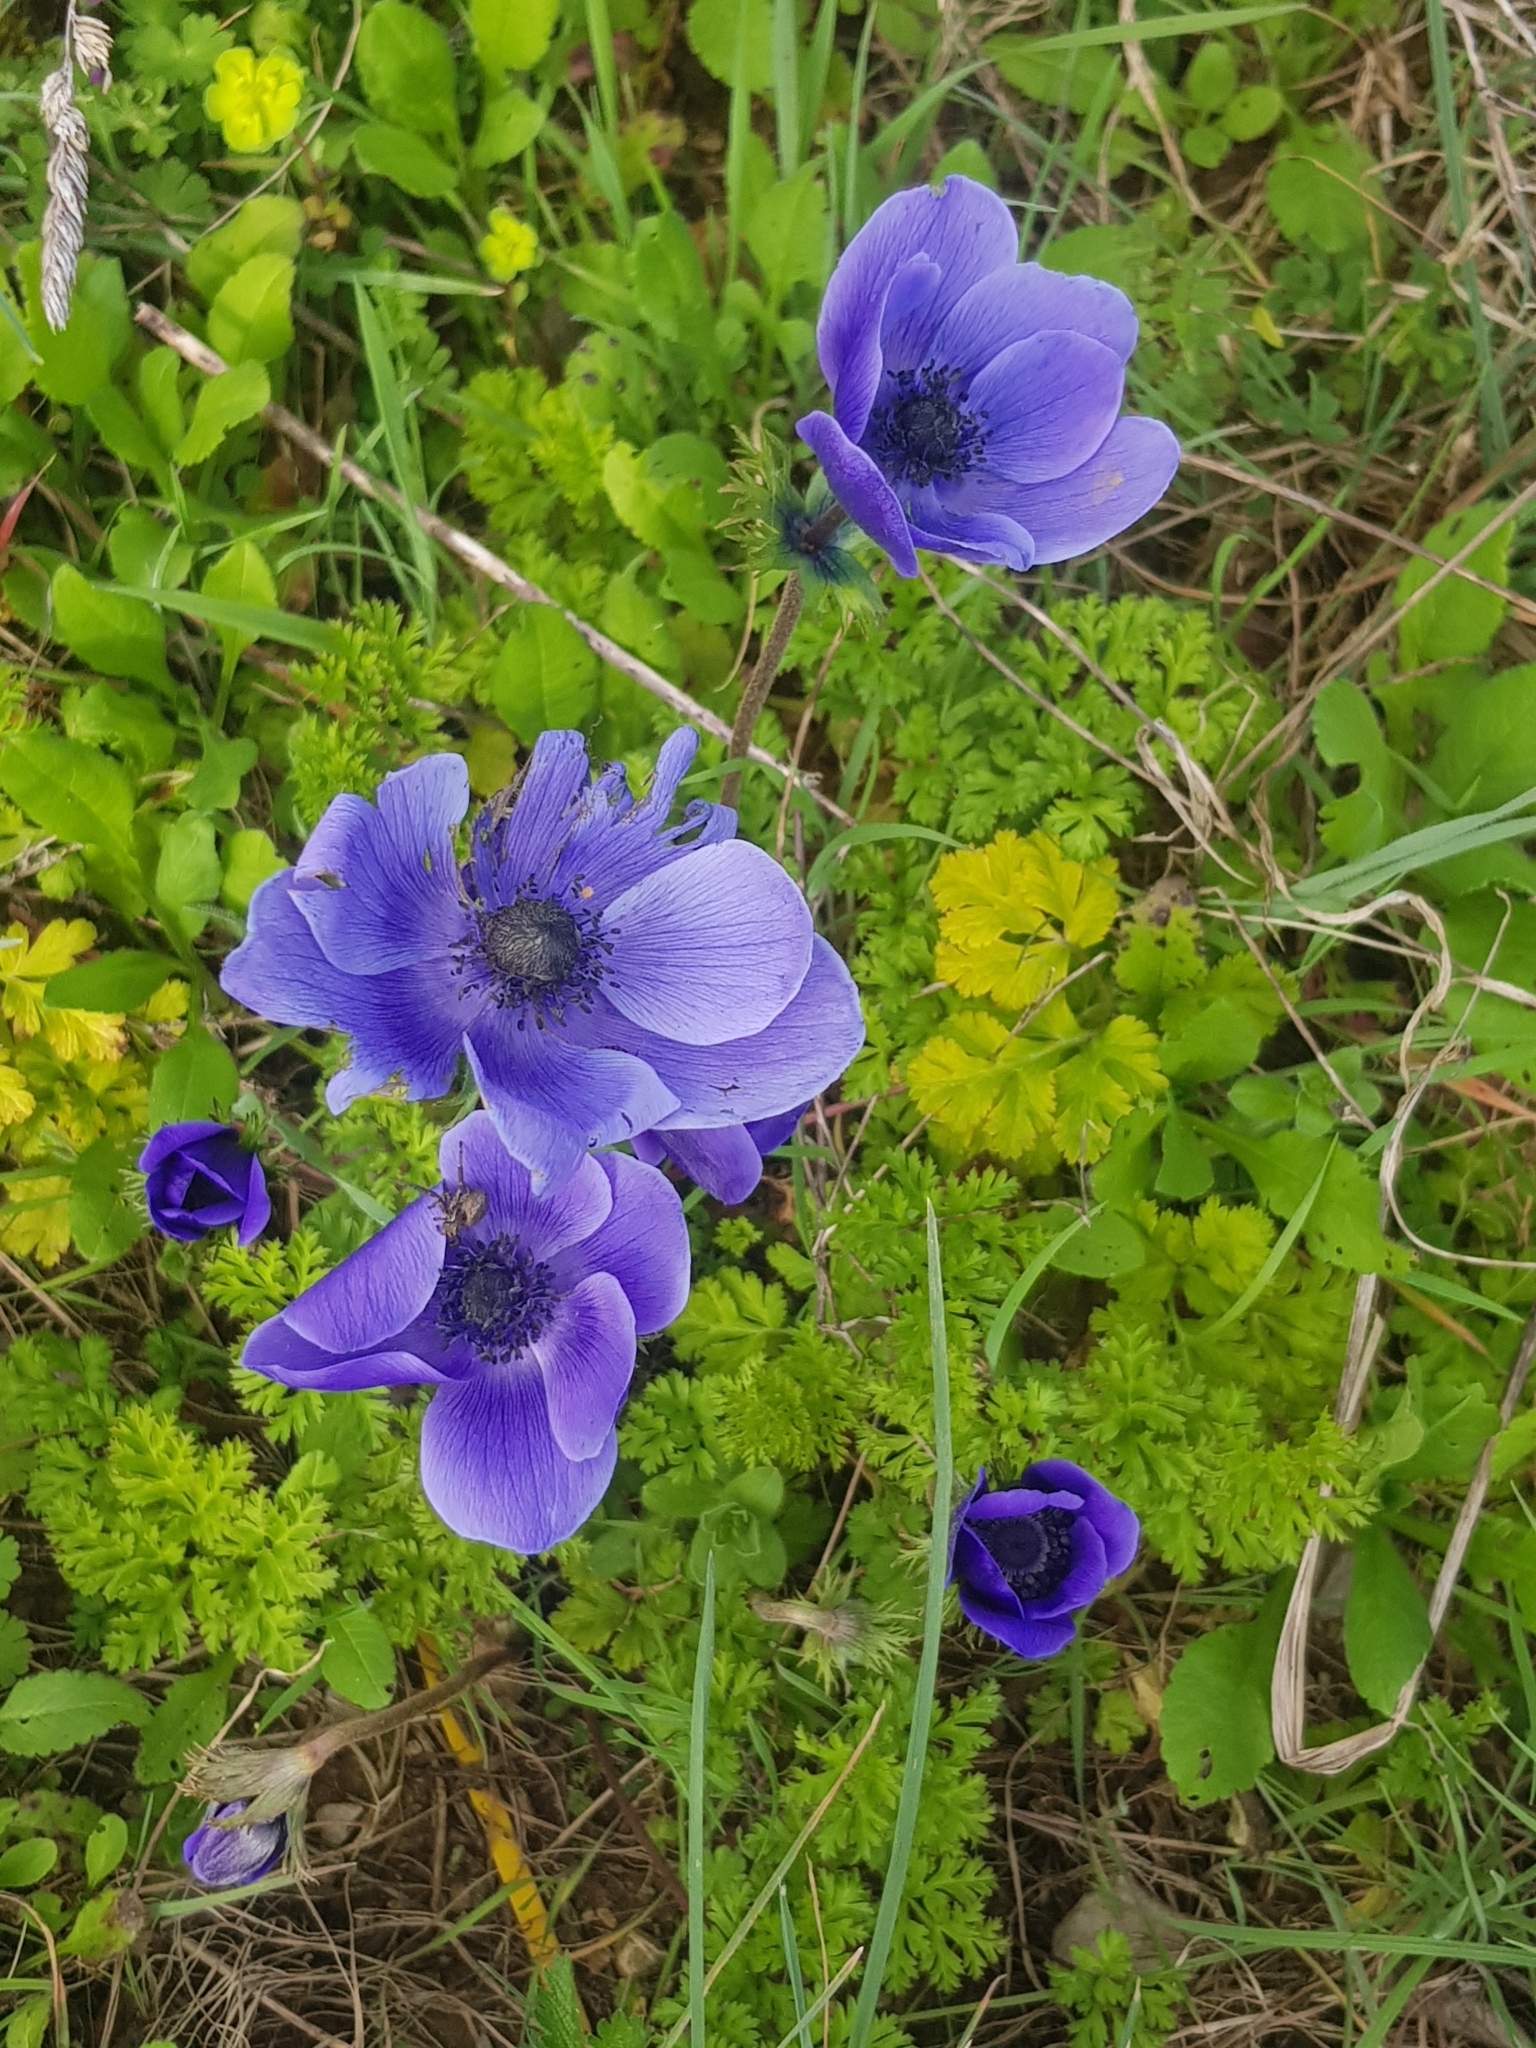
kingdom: Plantae
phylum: Tracheophyta
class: Magnoliopsida
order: Ranunculales
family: Ranunculaceae
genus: Anemone
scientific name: Anemone coronaria
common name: Poppy anemone
